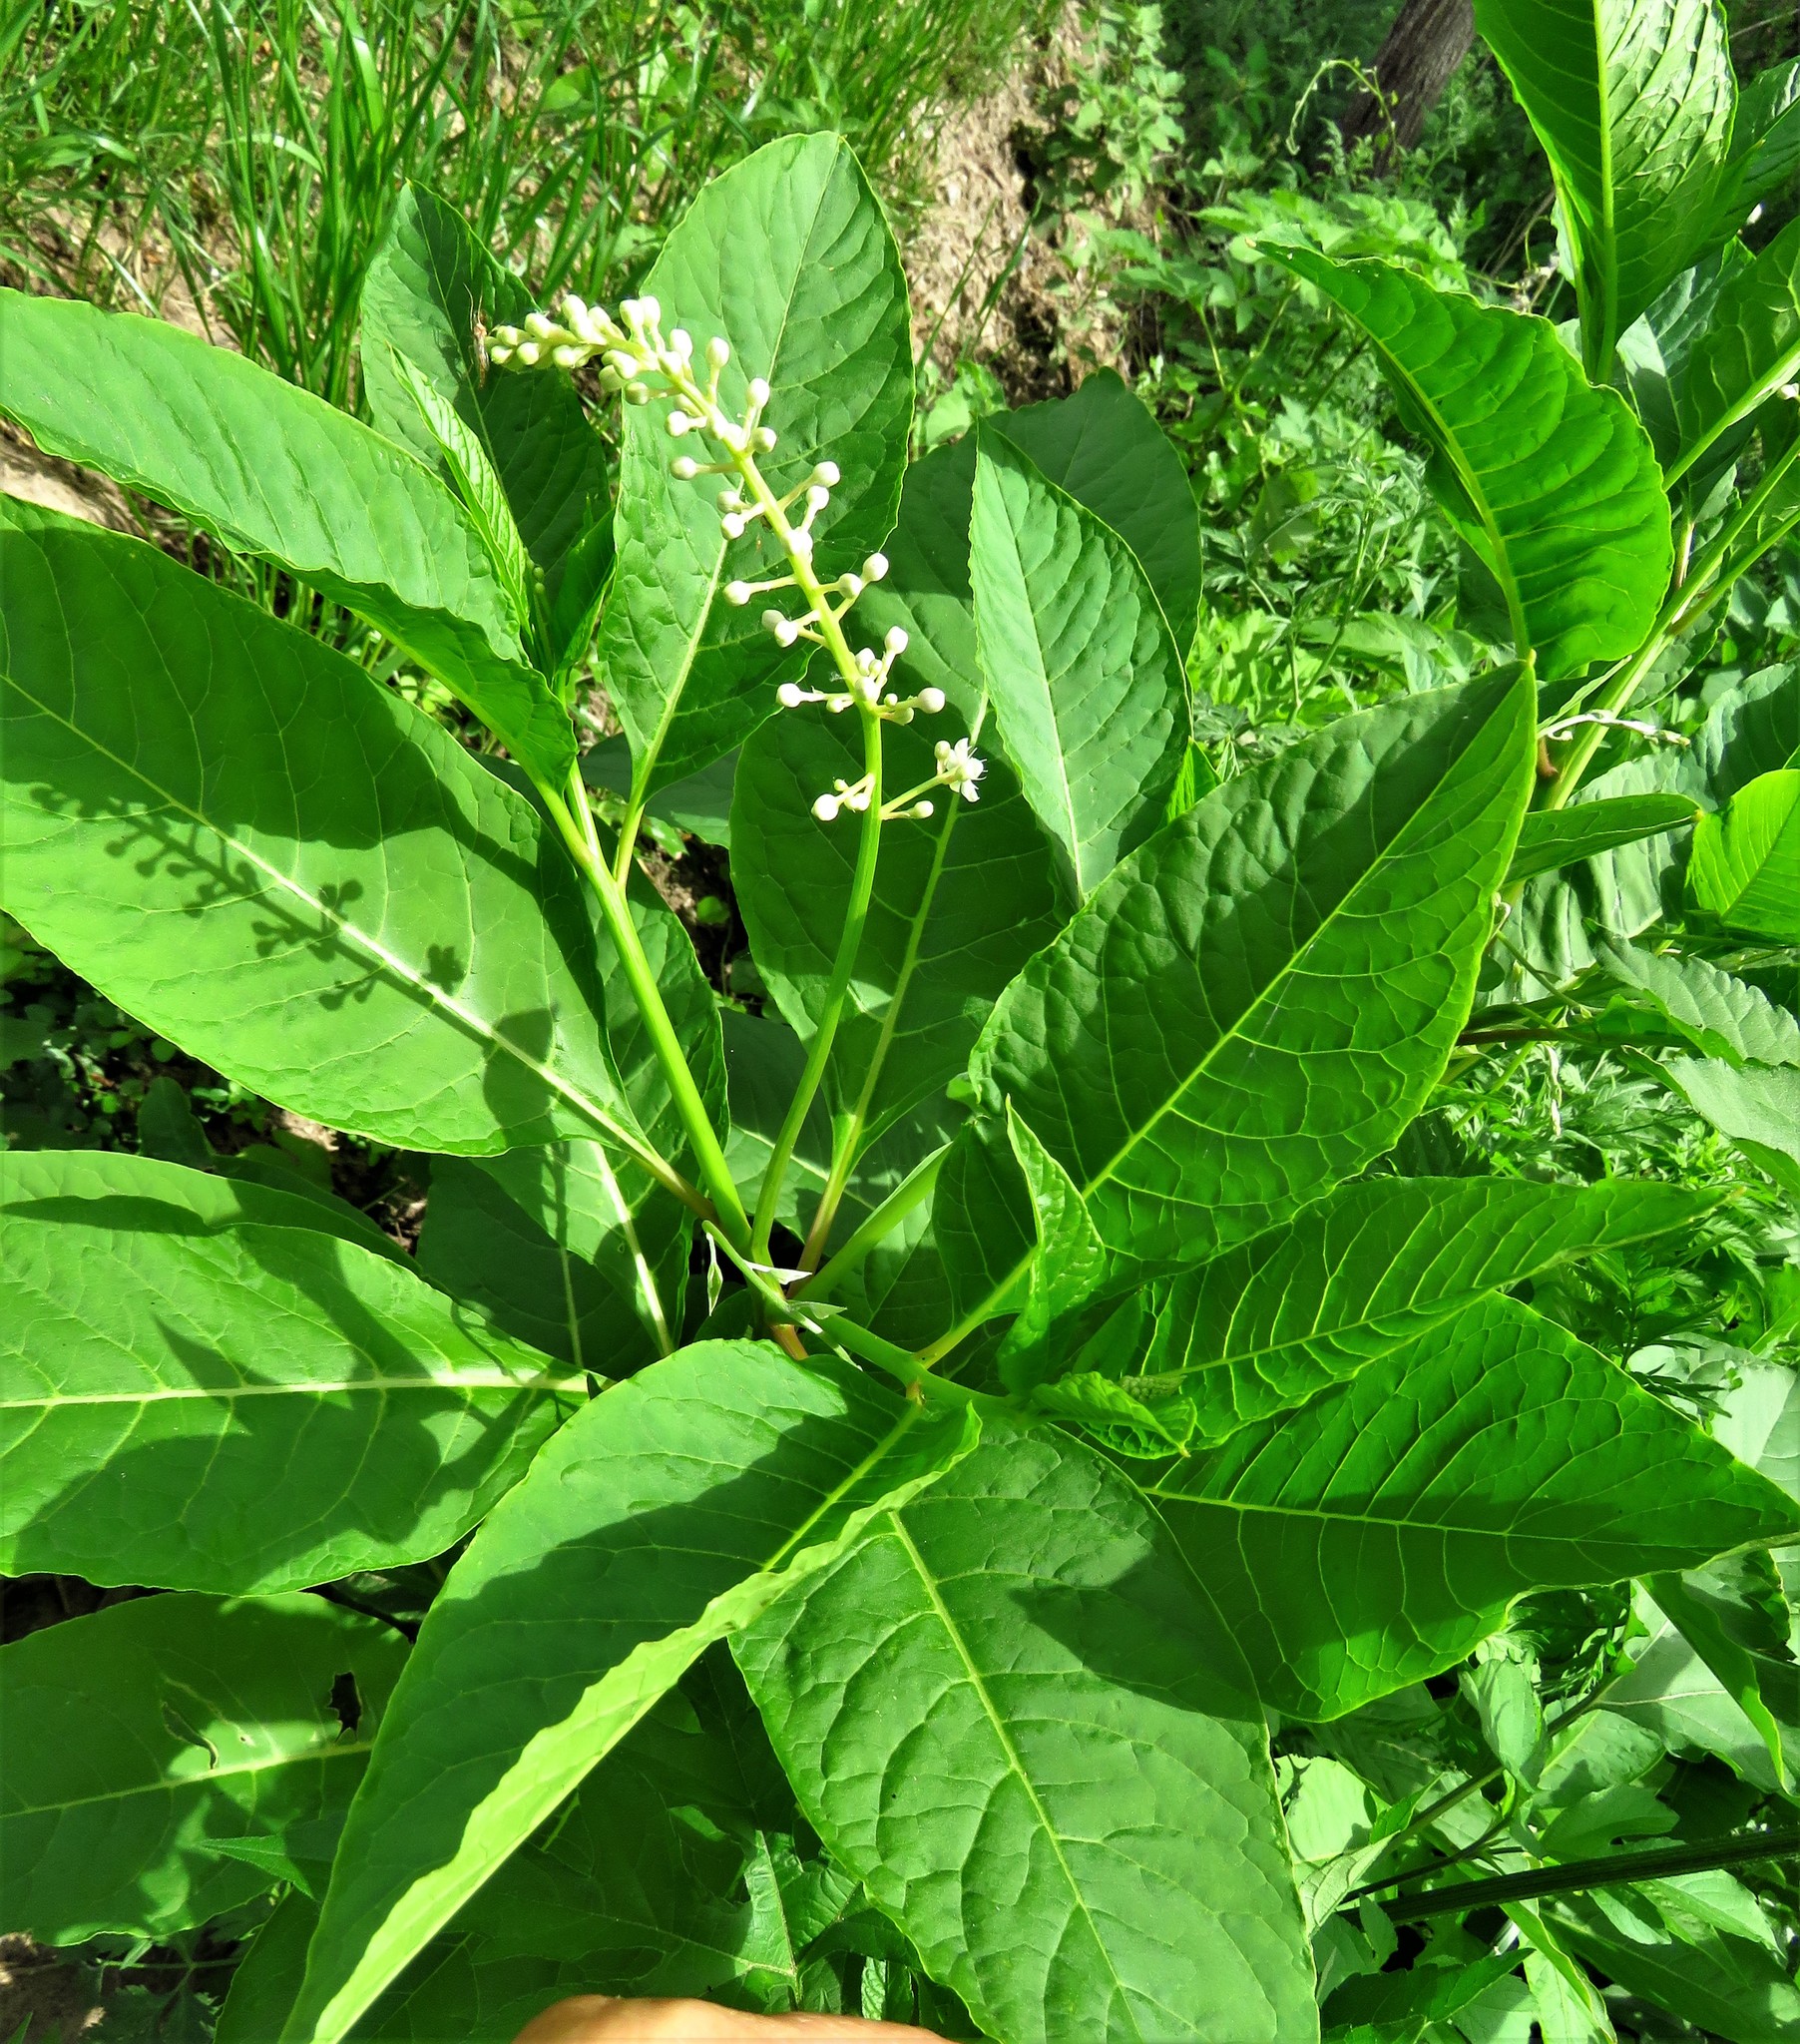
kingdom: Plantae
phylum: Tracheophyta
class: Magnoliopsida
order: Caryophyllales
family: Phytolaccaceae
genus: Phytolacca
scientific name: Phytolacca americana
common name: American pokeweed
